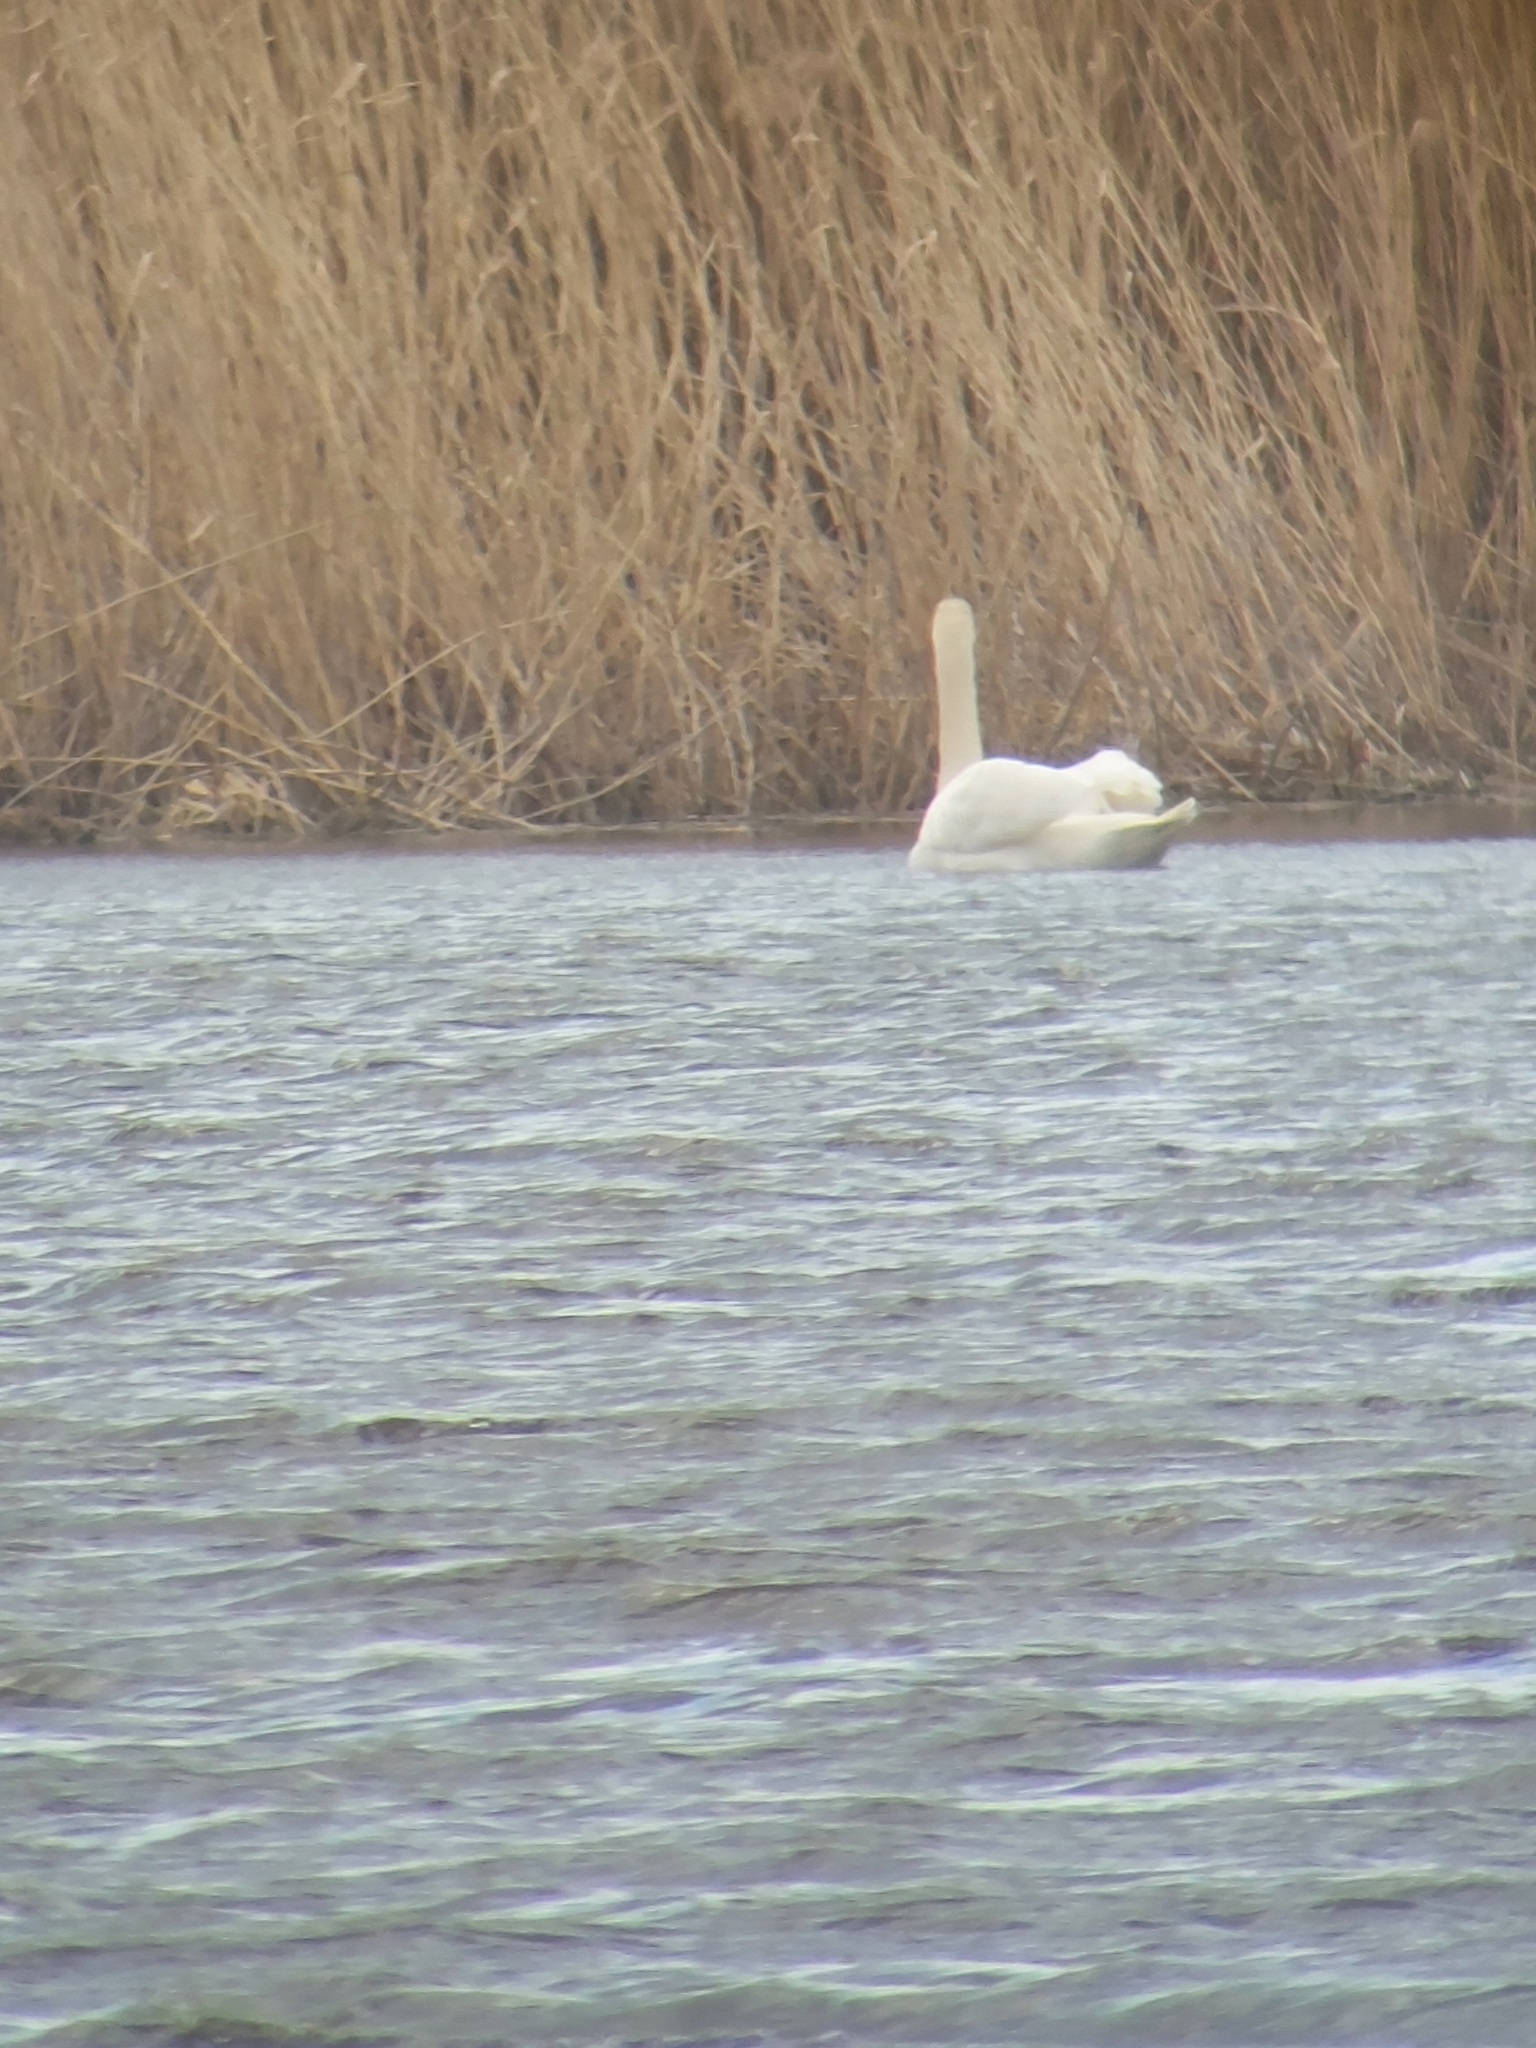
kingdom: Animalia
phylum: Chordata
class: Aves
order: Anseriformes
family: Anatidae
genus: Cygnus
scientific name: Cygnus olor
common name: Mute swan
